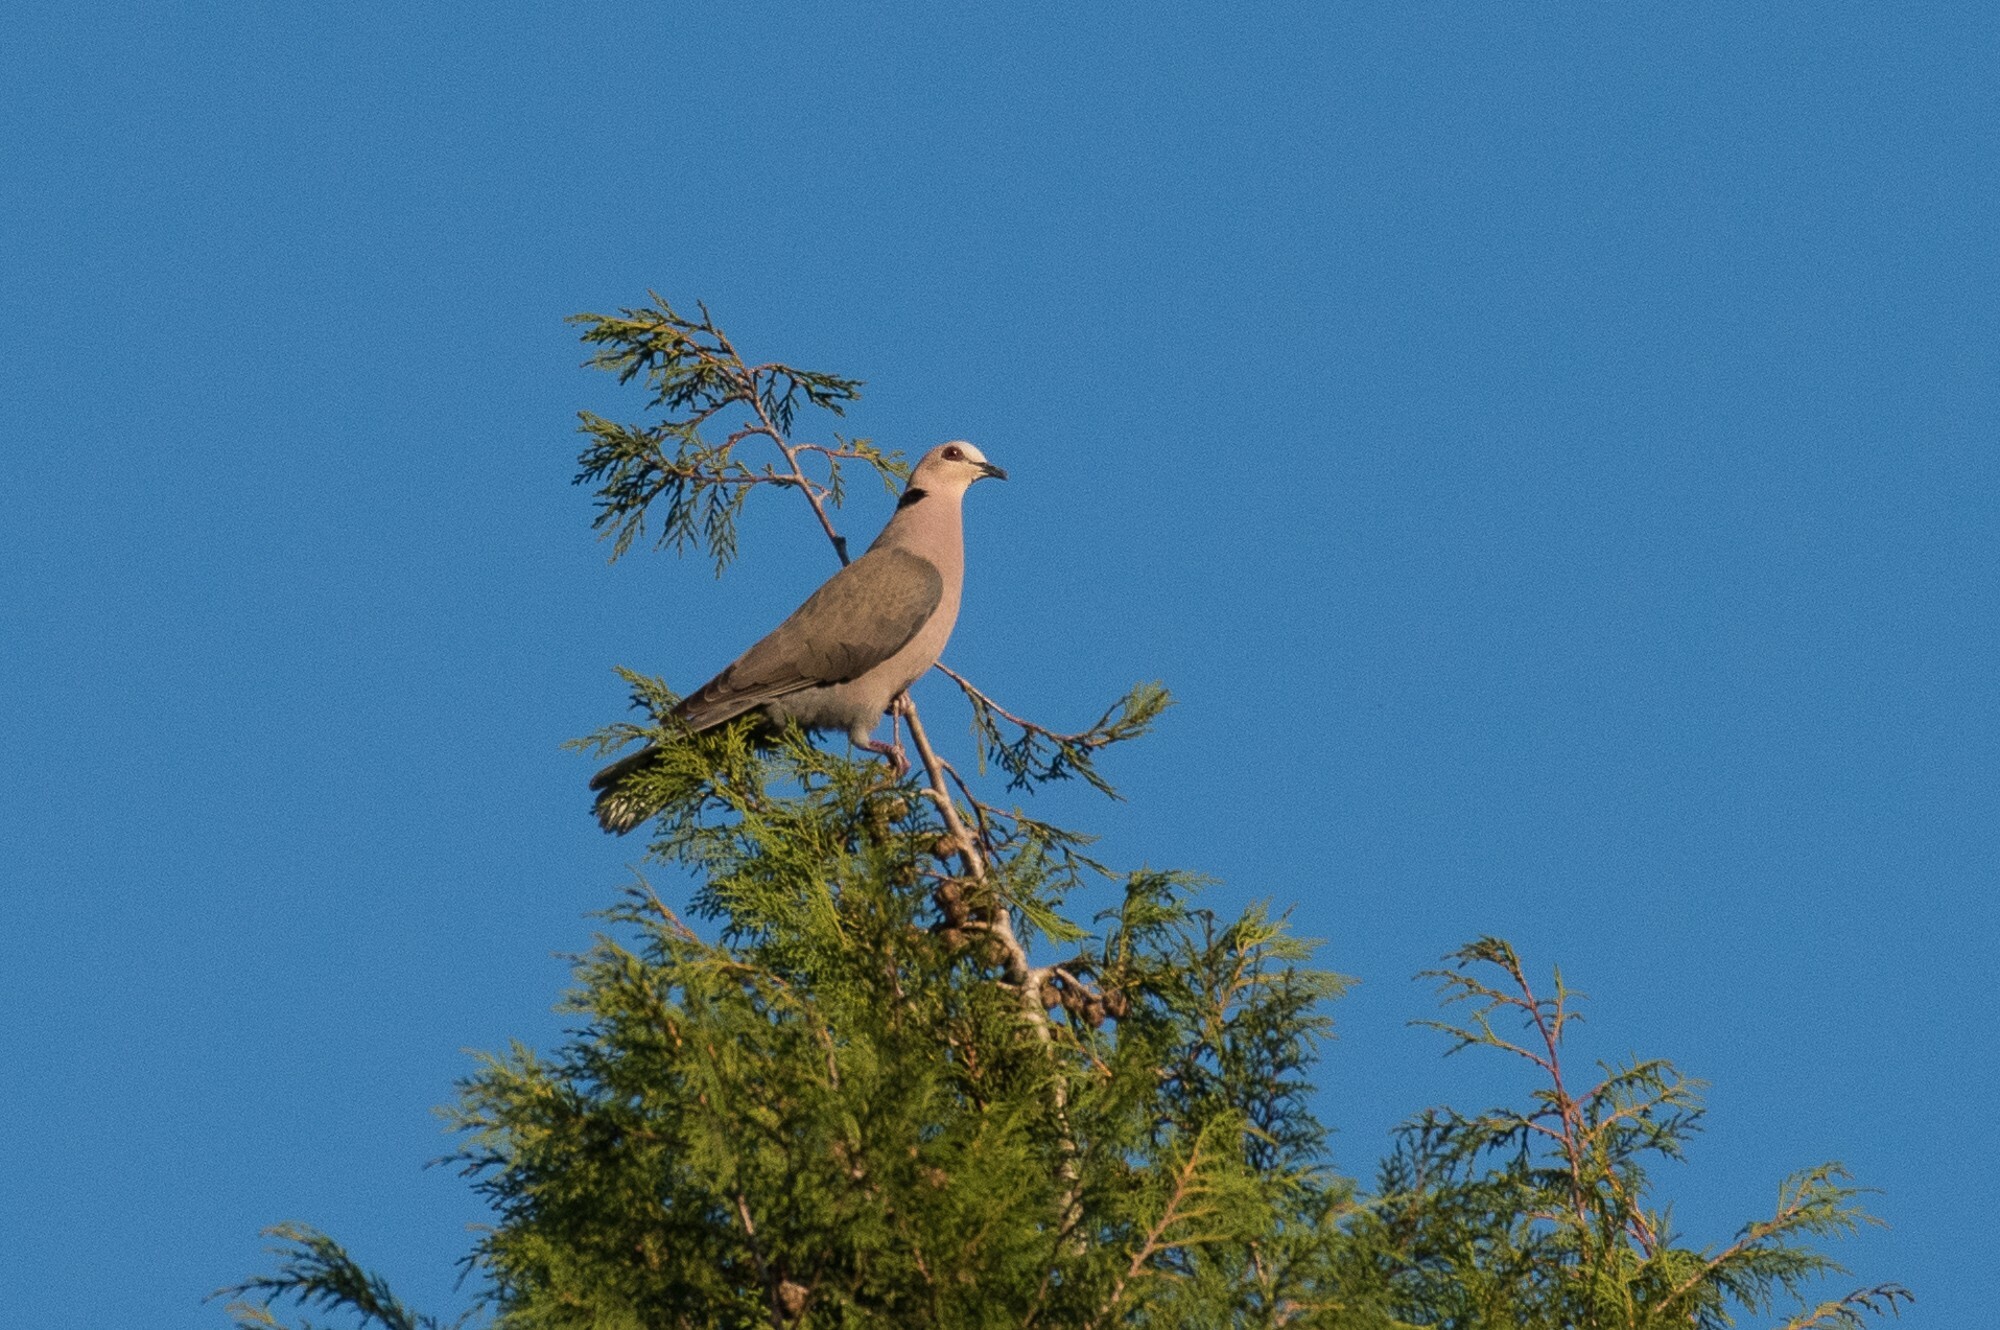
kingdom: Animalia
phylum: Chordata
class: Aves
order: Columbiformes
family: Columbidae
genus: Streptopelia
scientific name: Streptopelia semitorquata
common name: Red-eyed dove
